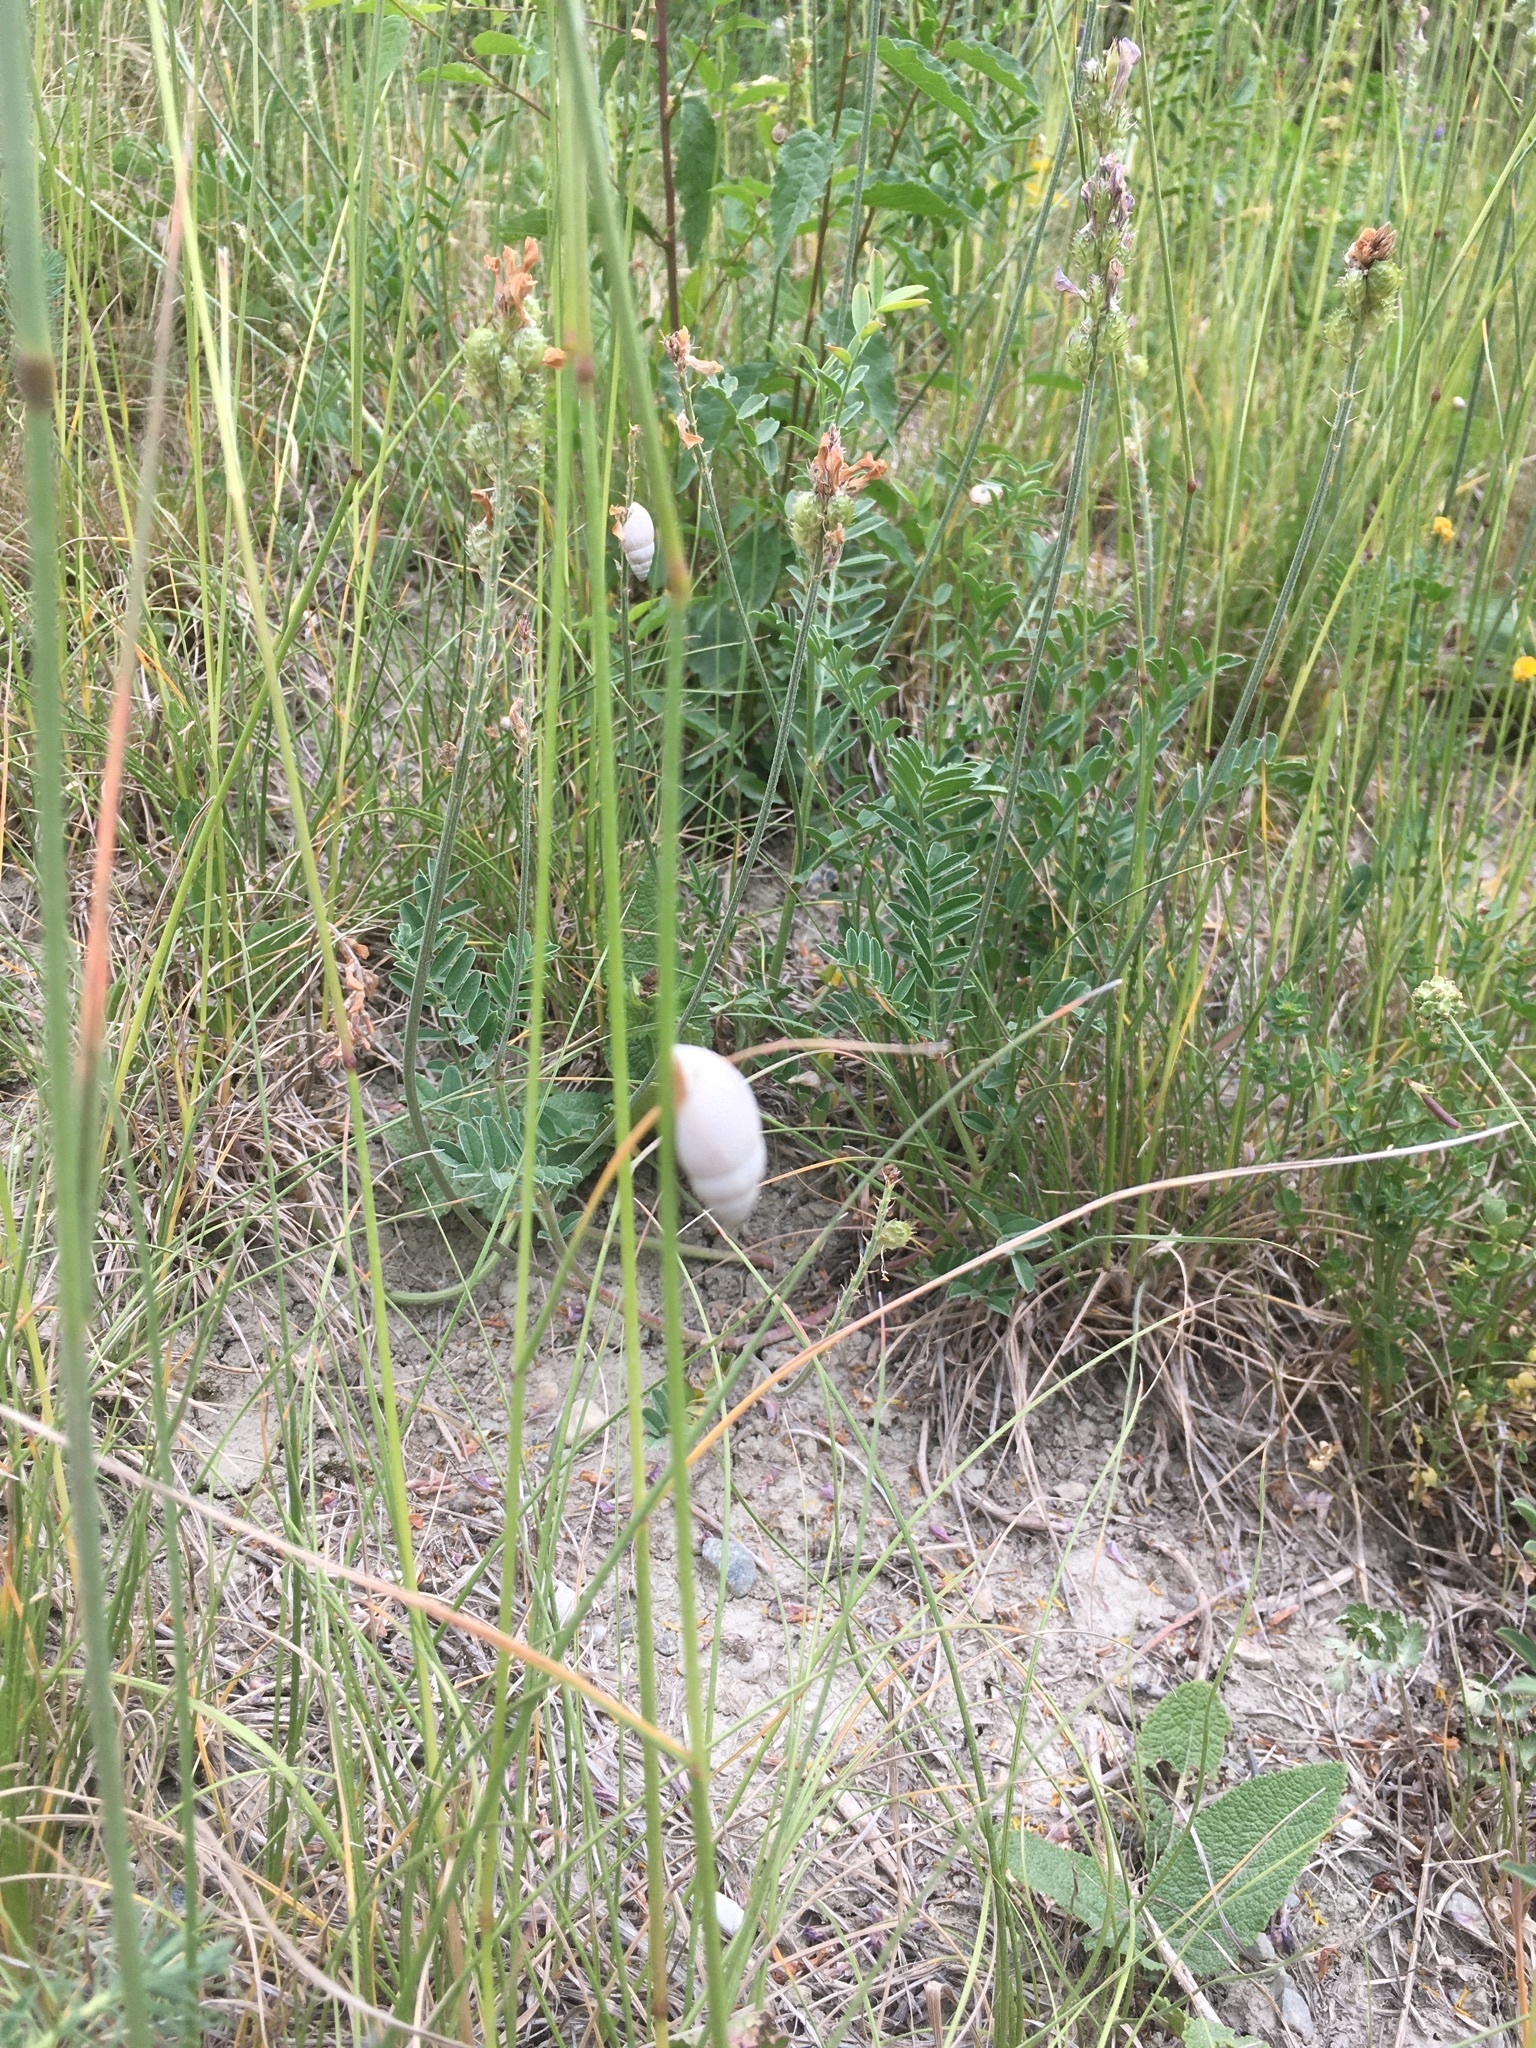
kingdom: Animalia
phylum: Mollusca
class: Gastropoda
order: Stylommatophora
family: Enidae
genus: Zebrina
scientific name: Zebrina detrita
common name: Large bulin
